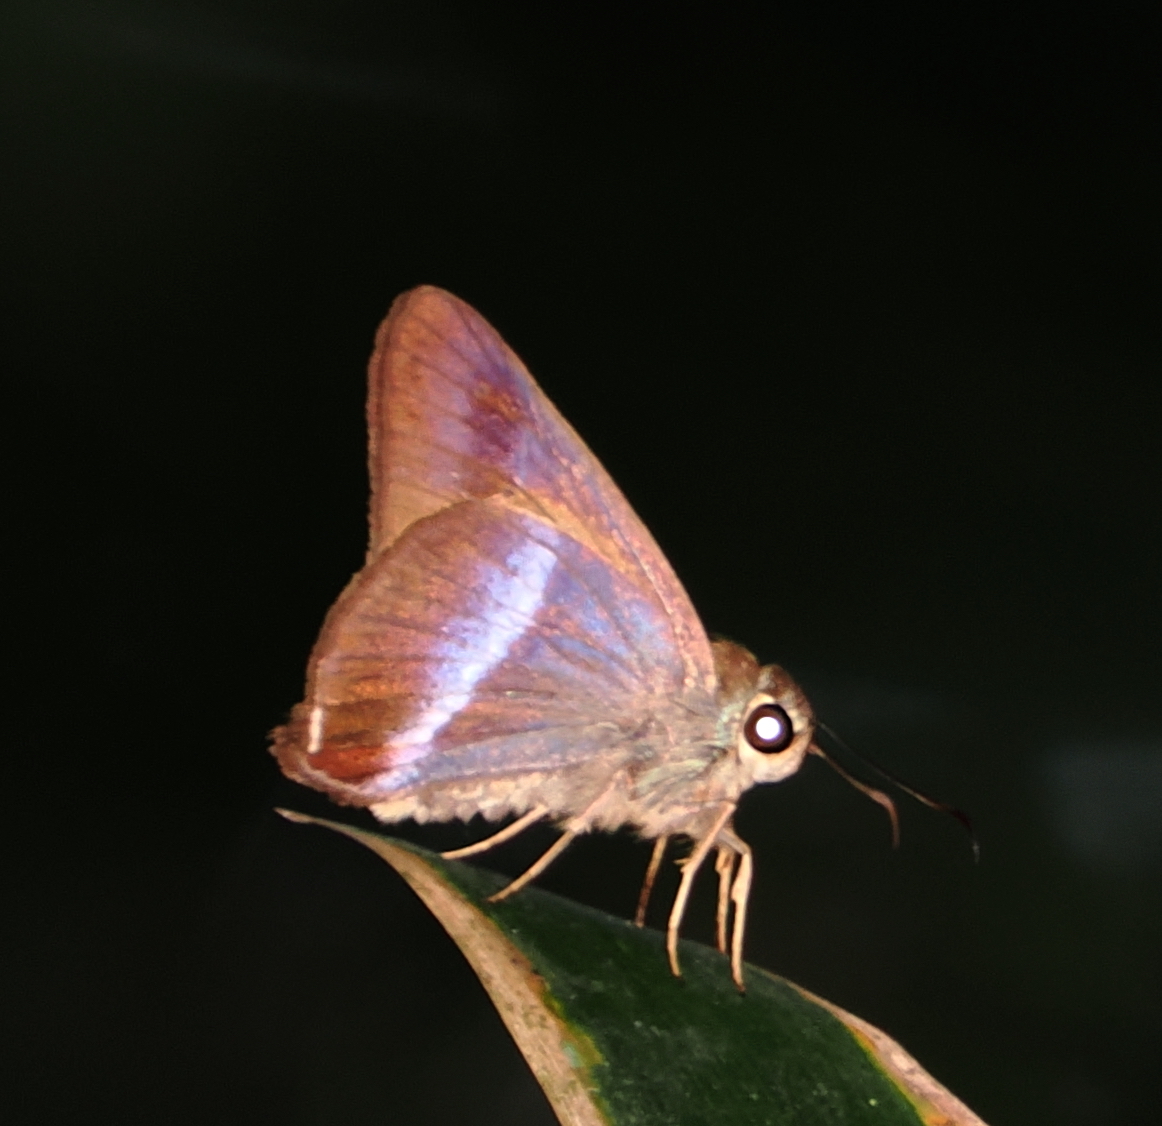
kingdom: Animalia
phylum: Arthropoda
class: Insecta
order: Lepidoptera
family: Hesperiidae
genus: Hasora
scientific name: Hasora vitta
